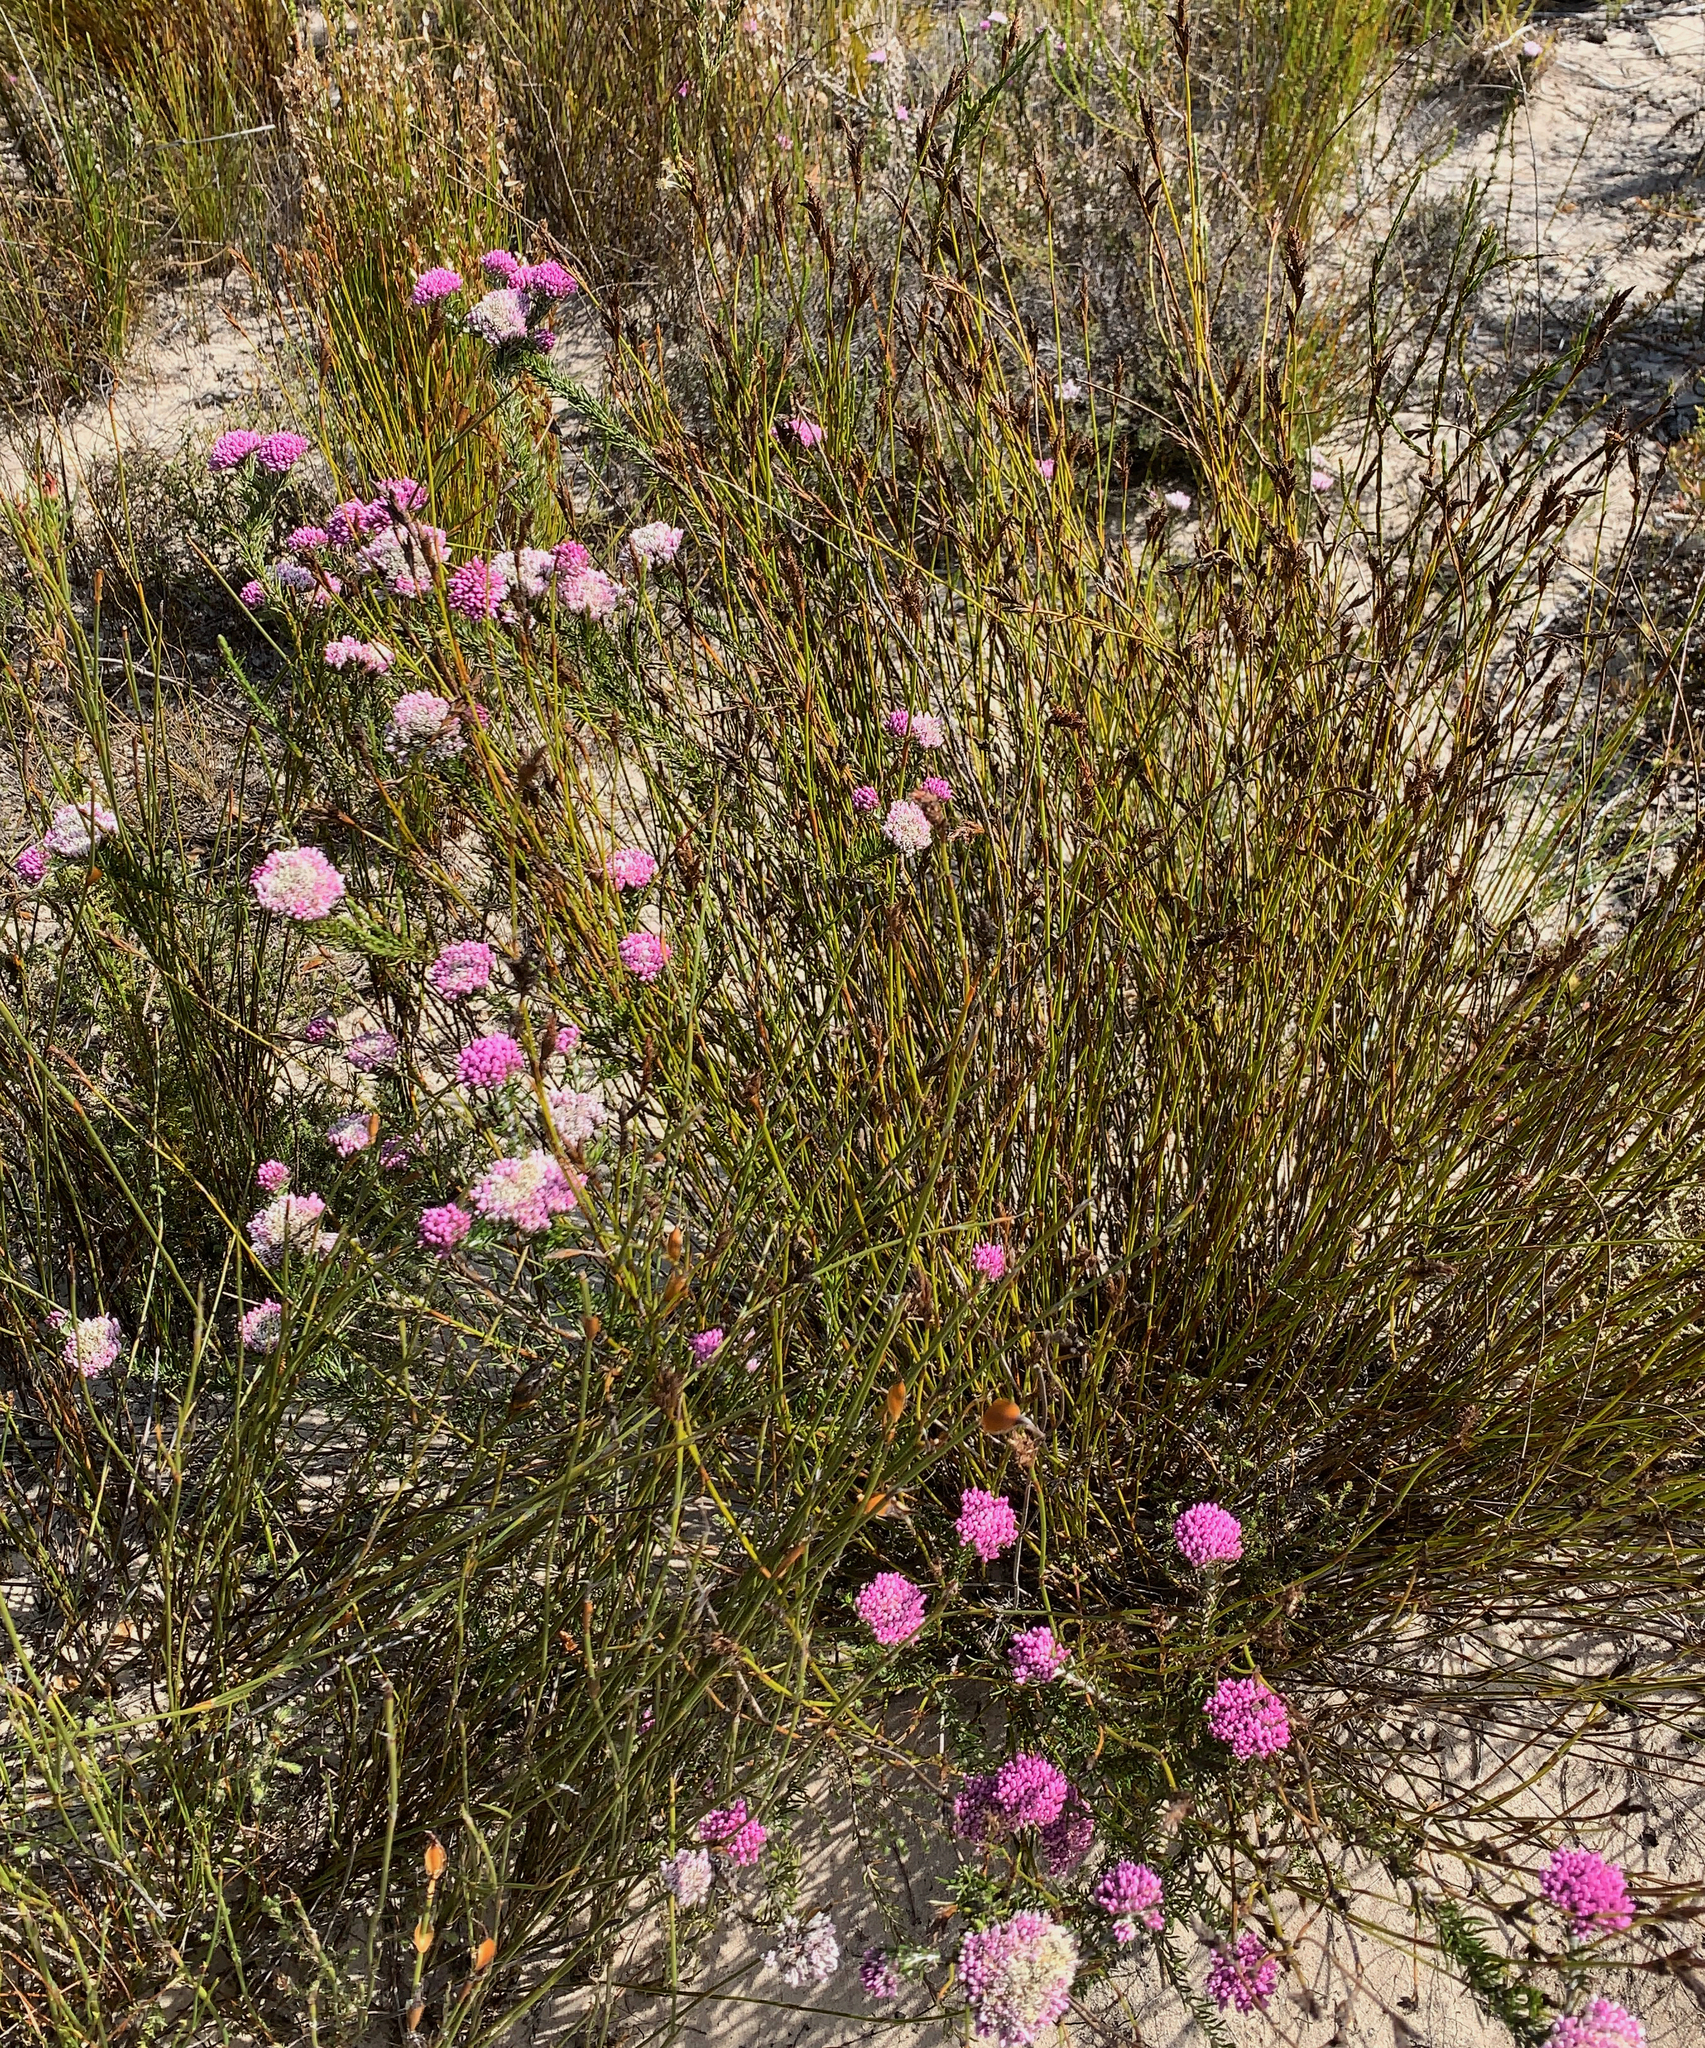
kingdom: Plantae
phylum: Tracheophyta
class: Magnoliopsida
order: Asterales
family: Asteraceae
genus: Metalasia
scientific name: Metalasia erubescens
